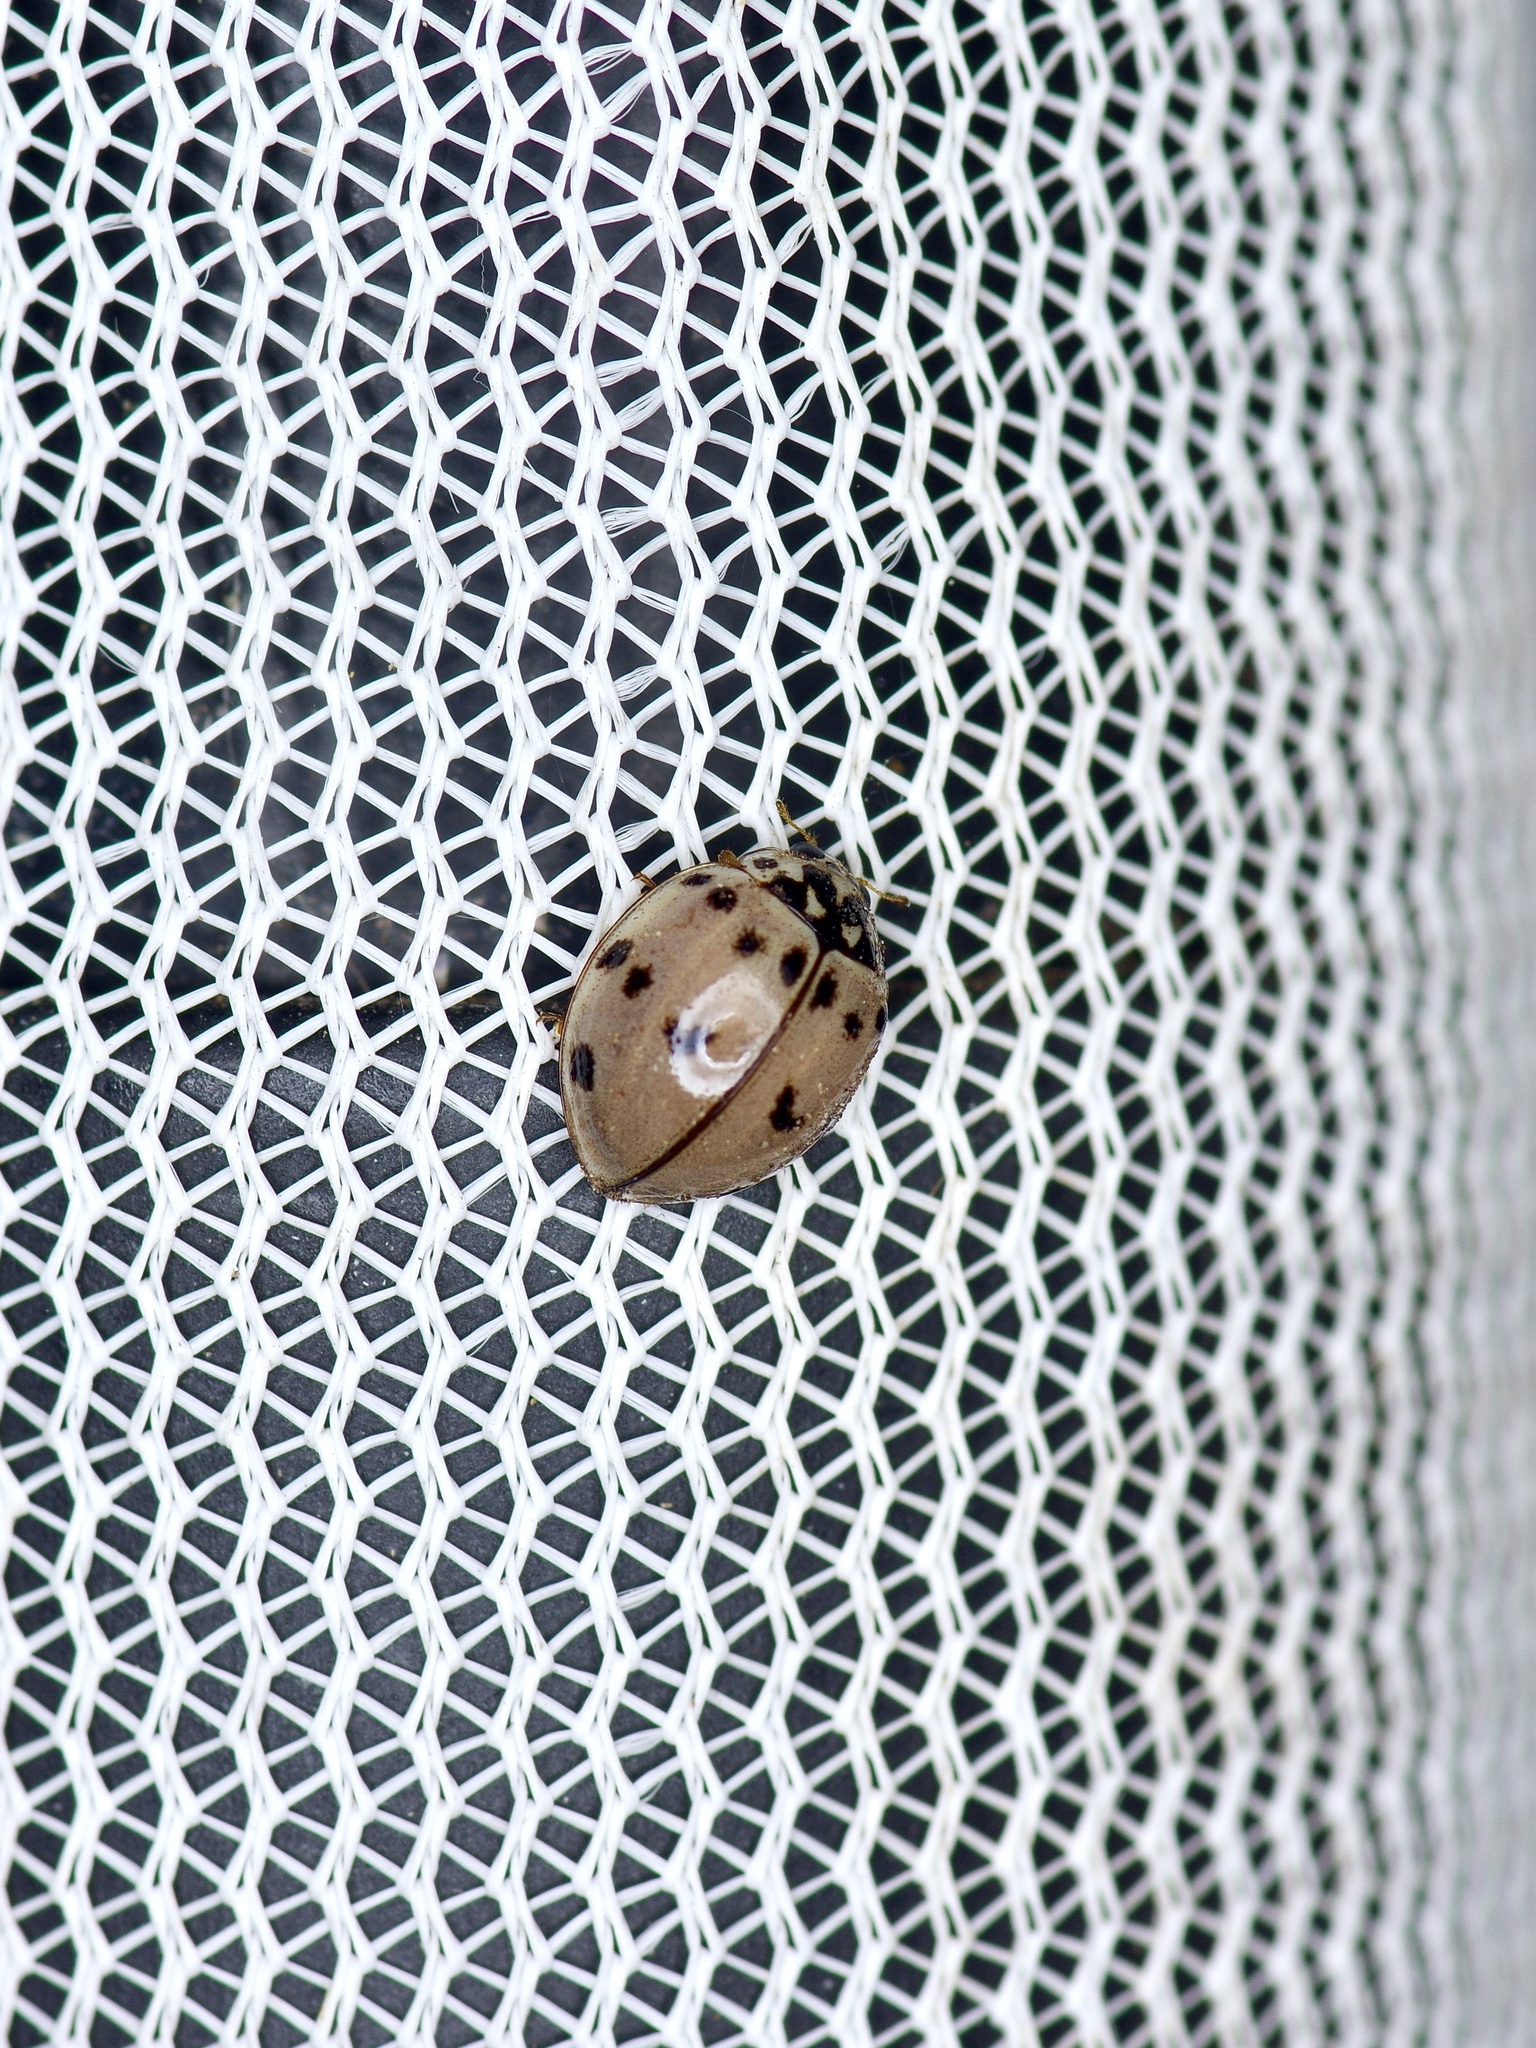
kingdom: Animalia
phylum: Arthropoda
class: Insecta
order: Coleoptera
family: Coccinellidae
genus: Olla
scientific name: Olla v-nigrum
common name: Ashy gray lady beetle
